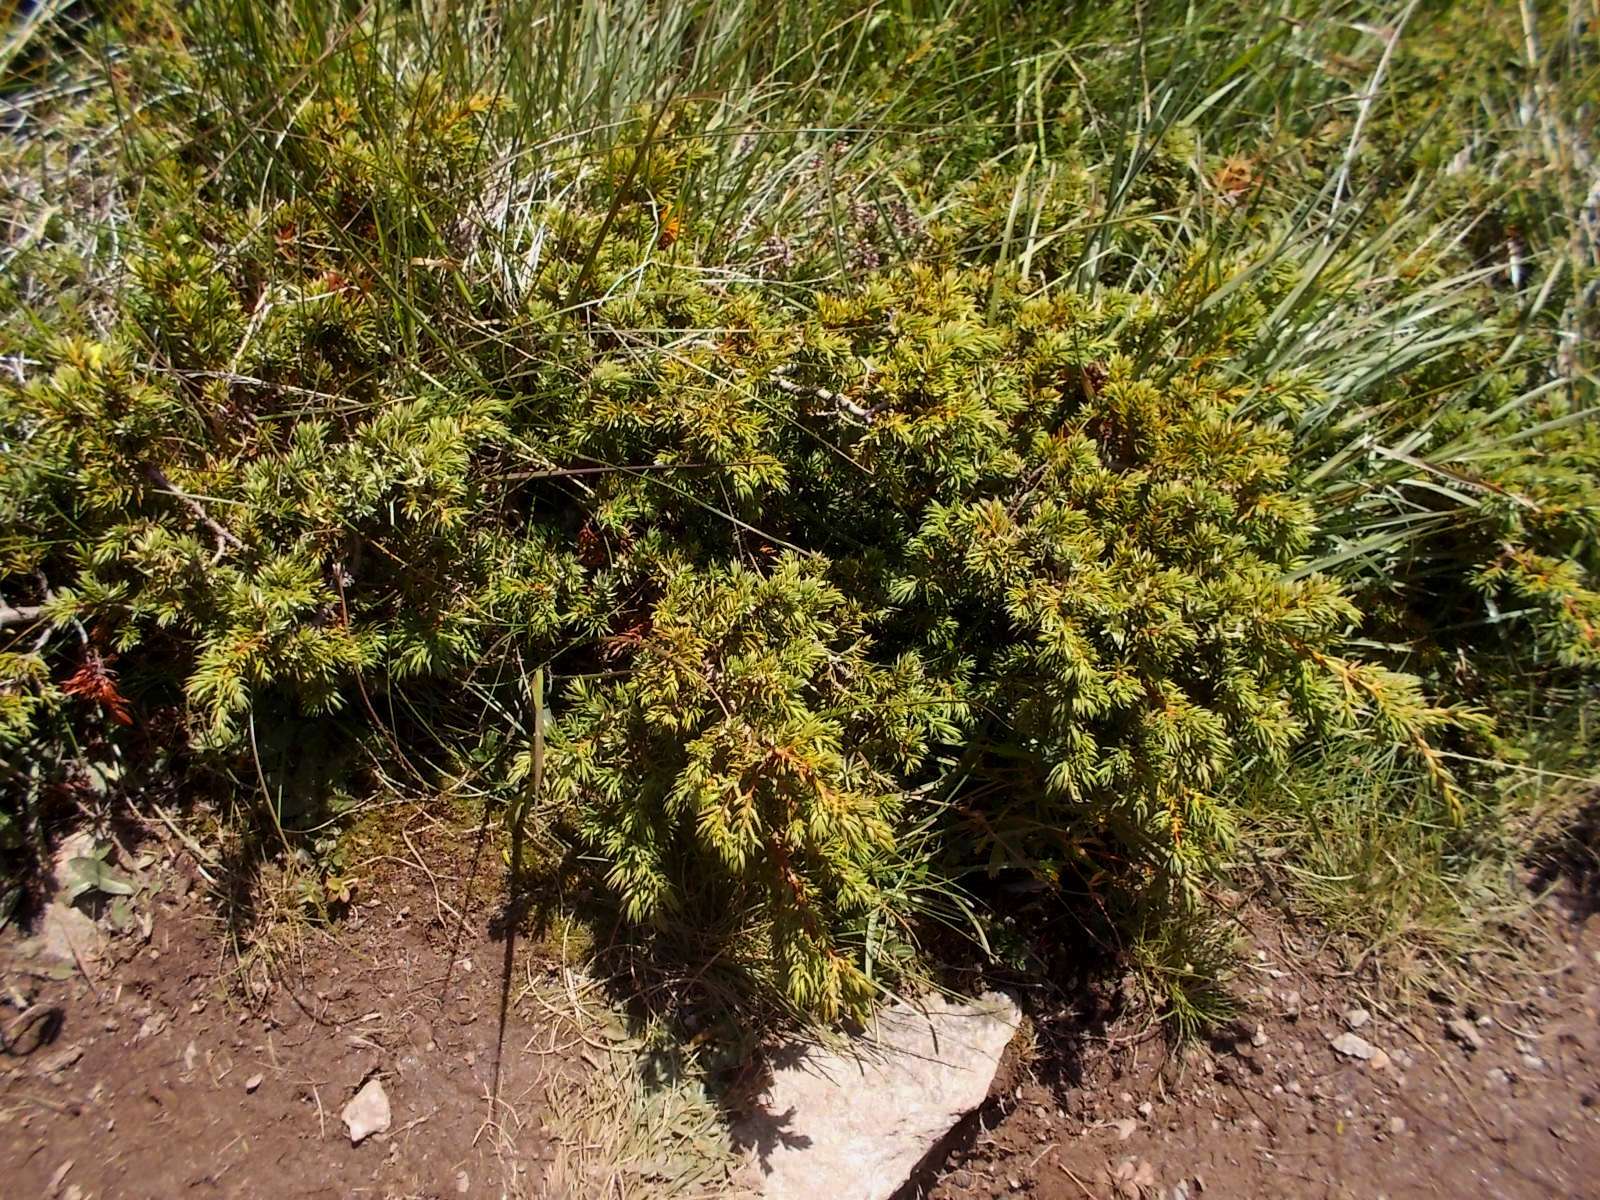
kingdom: Plantae
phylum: Tracheophyta
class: Pinopsida
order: Pinales
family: Cupressaceae
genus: Juniperus
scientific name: Juniperus communis
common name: Common juniper
